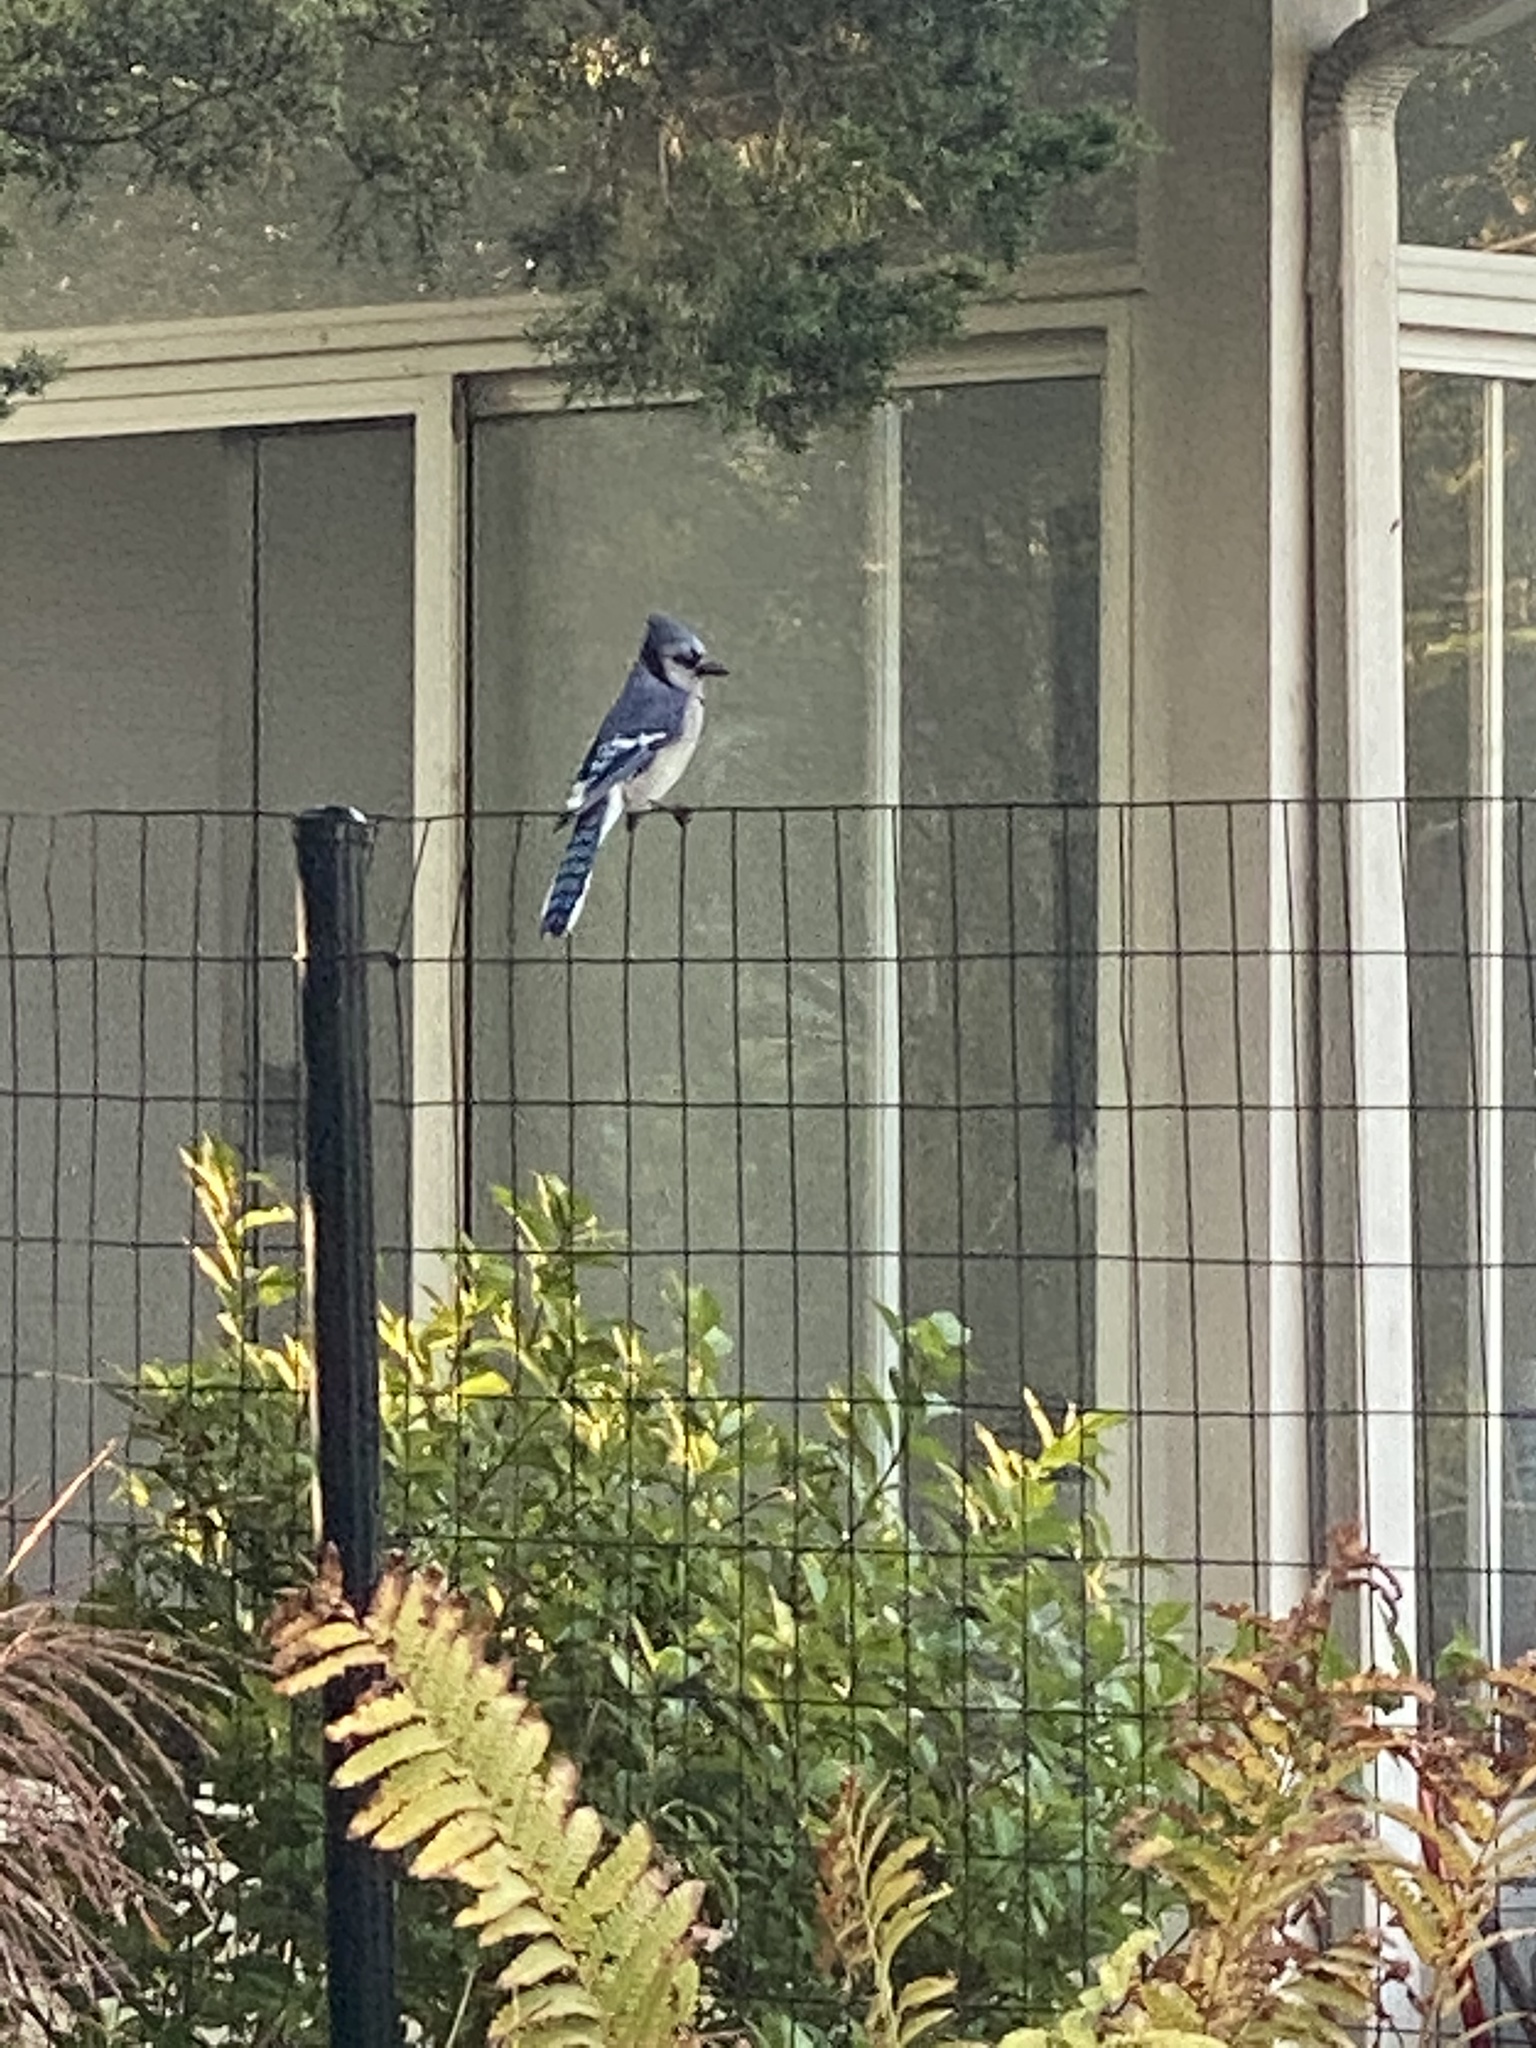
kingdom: Animalia
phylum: Chordata
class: Aves
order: Passeriformes
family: Corvidae
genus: Cyanocitta
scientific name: Cyanocitta cristata
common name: Blue jay
